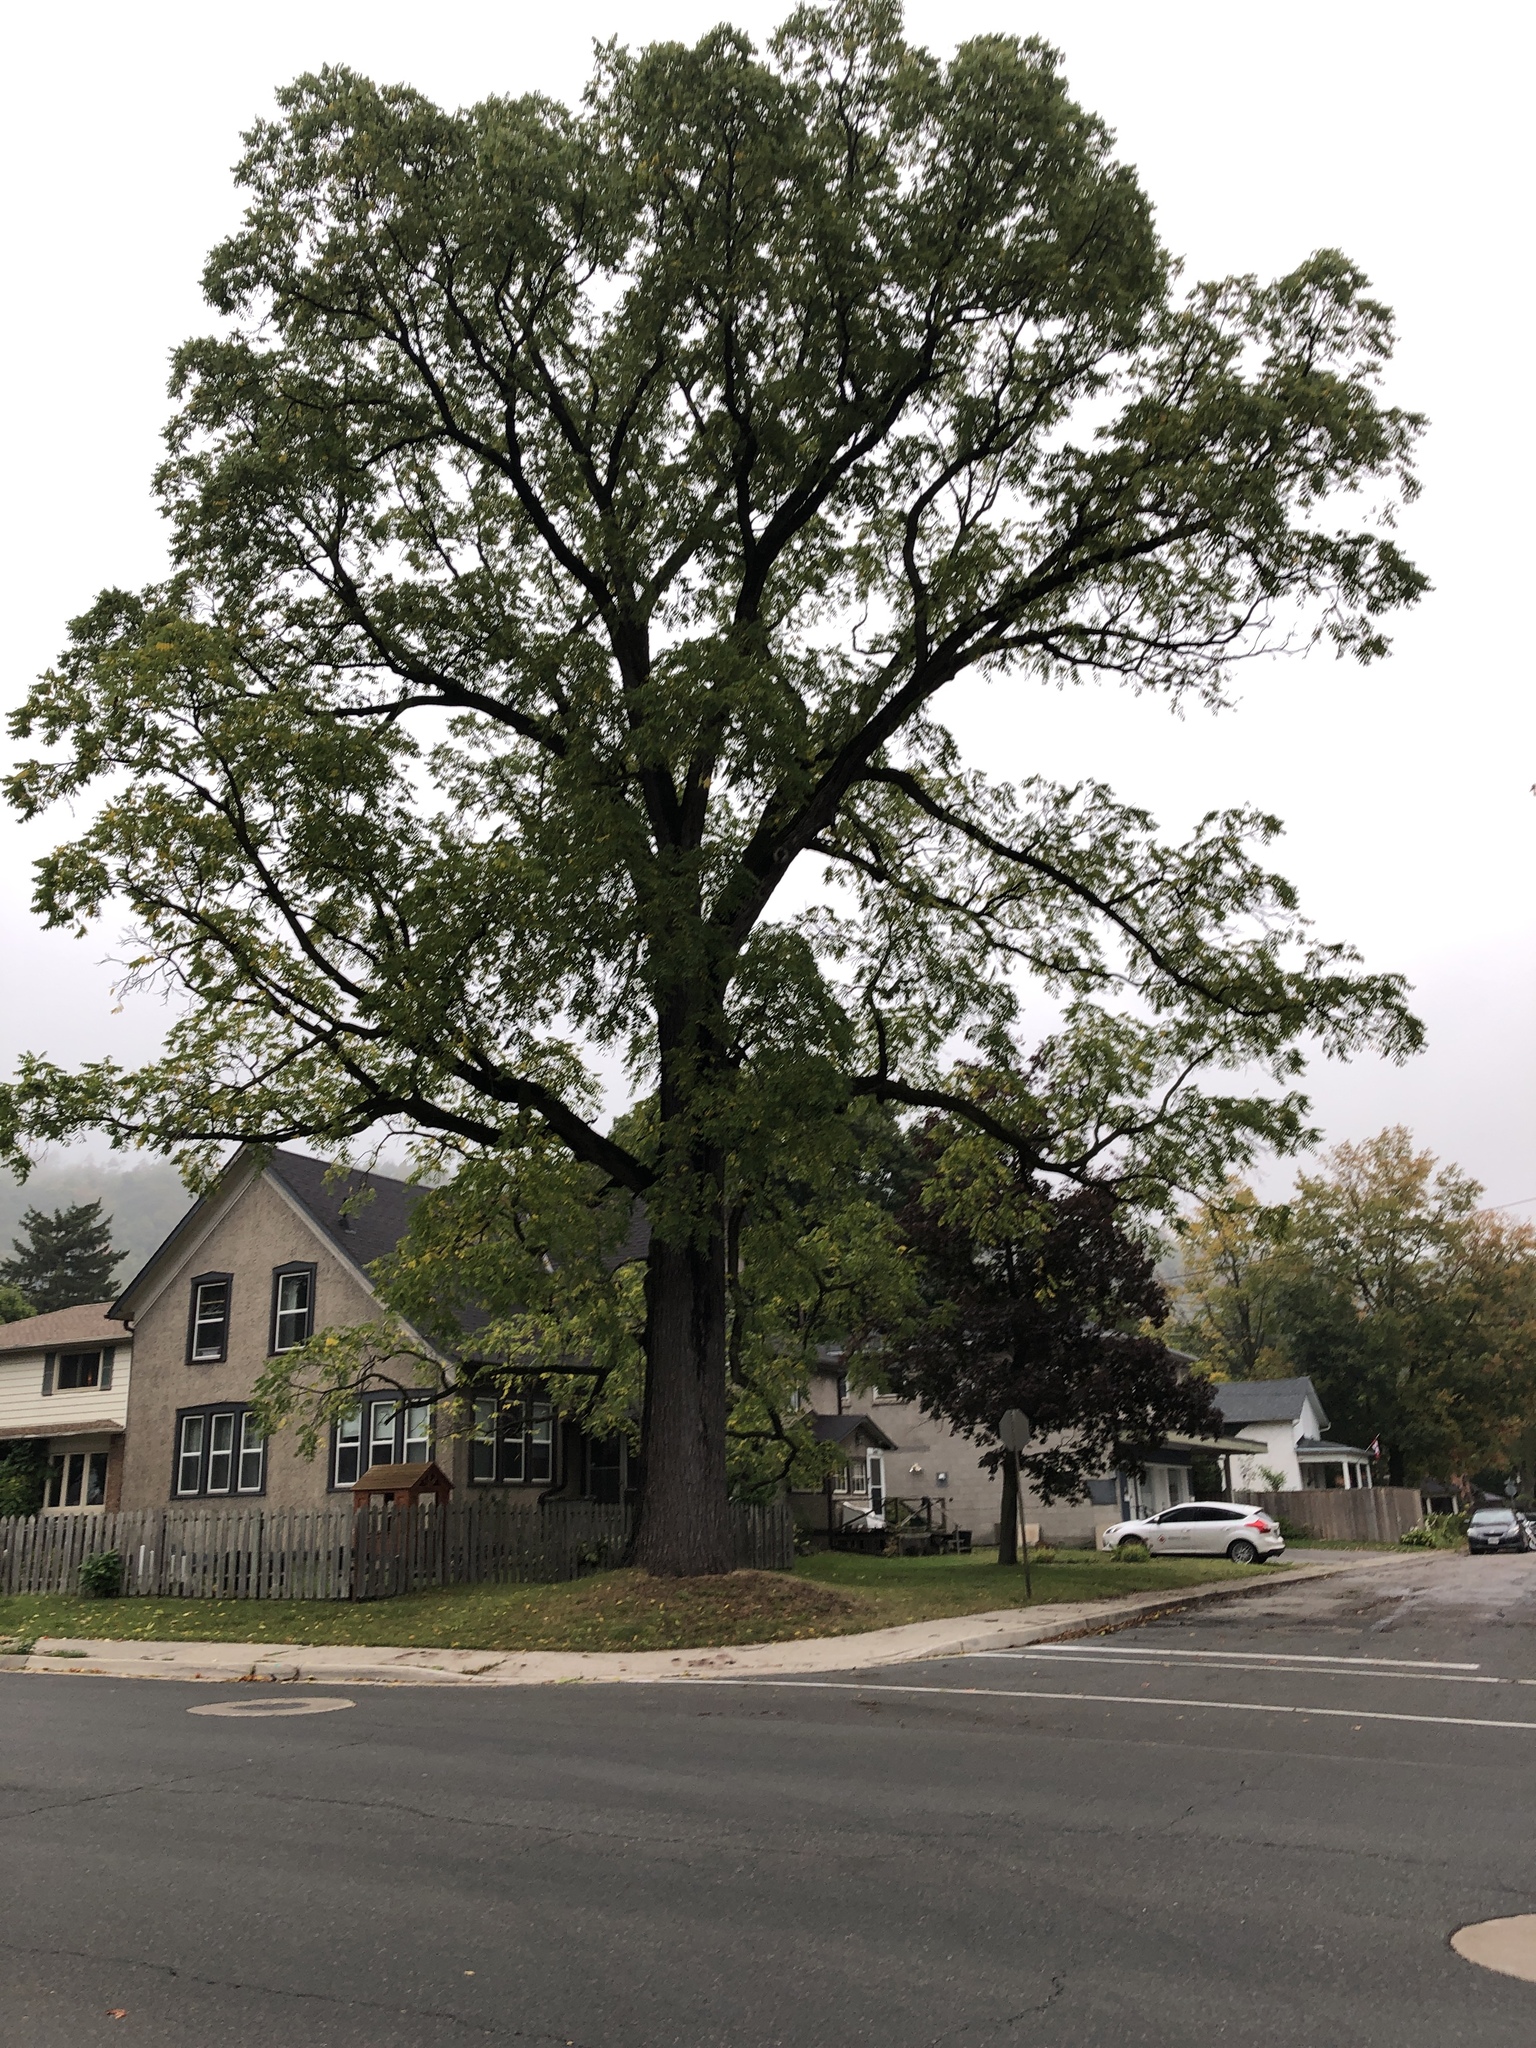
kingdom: Plantae
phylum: Tracheophyta
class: Magnoliopsida
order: Fagales
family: Juglandaceae
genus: Juglans
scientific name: Juglans nigra
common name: Black walnut
